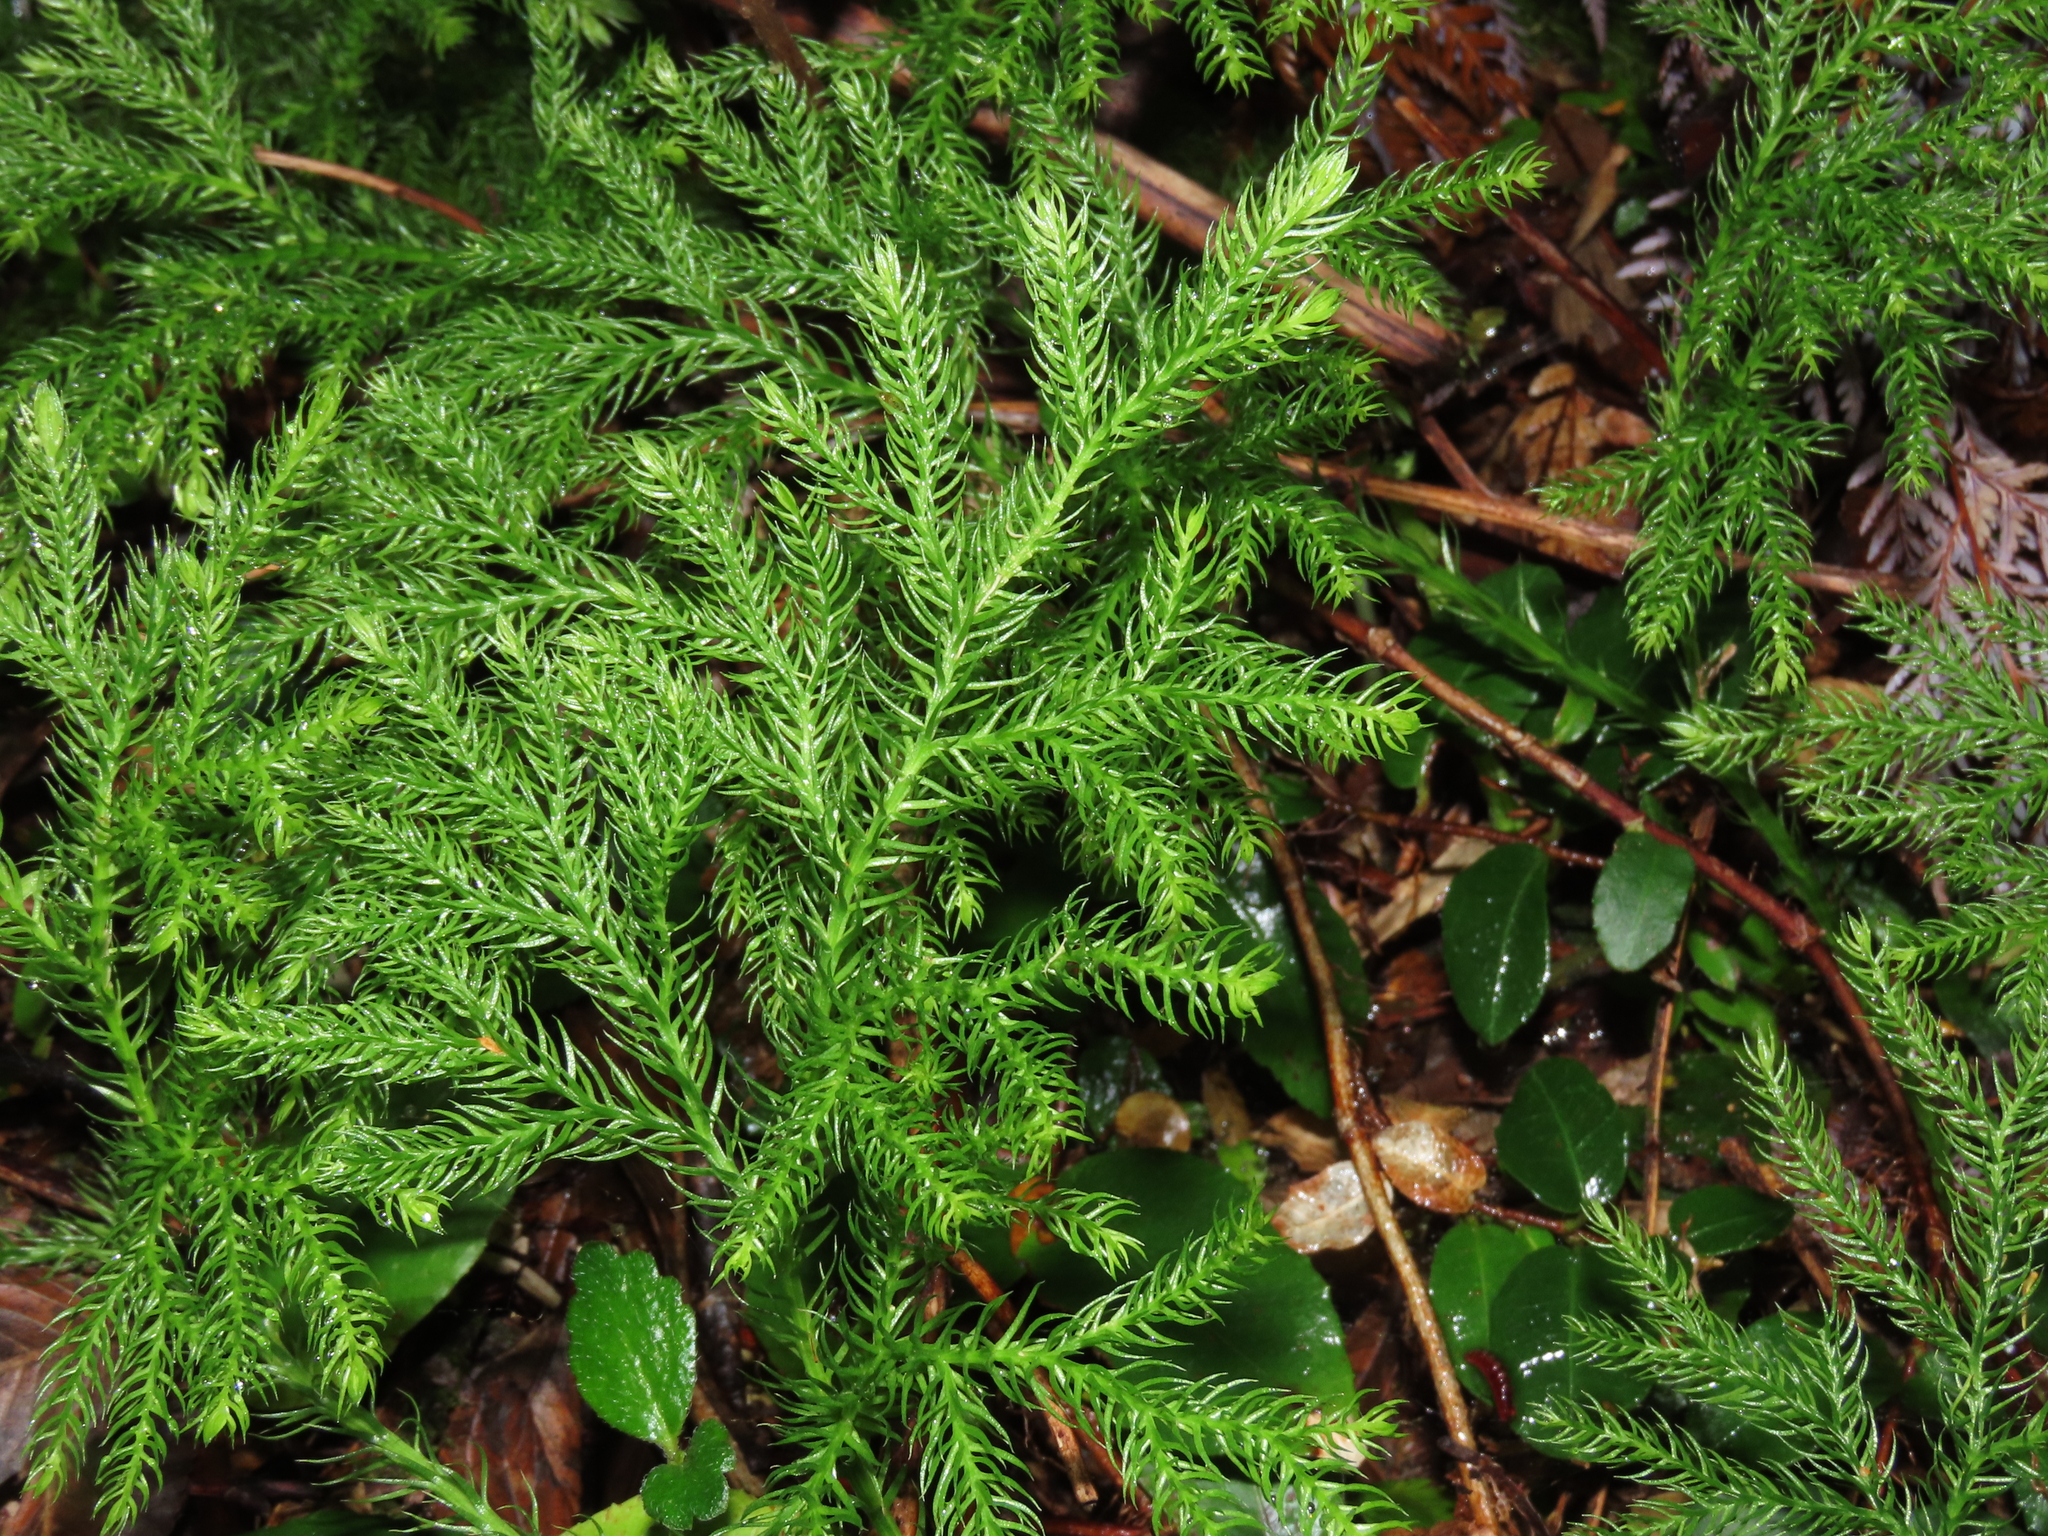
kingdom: Plantae
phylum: Tracheophyta
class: Lycopodiopsida
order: Lycopodiales
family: Lycopodiaceae
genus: Austrolycopodium
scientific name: Austrolycopodium paniculatum
